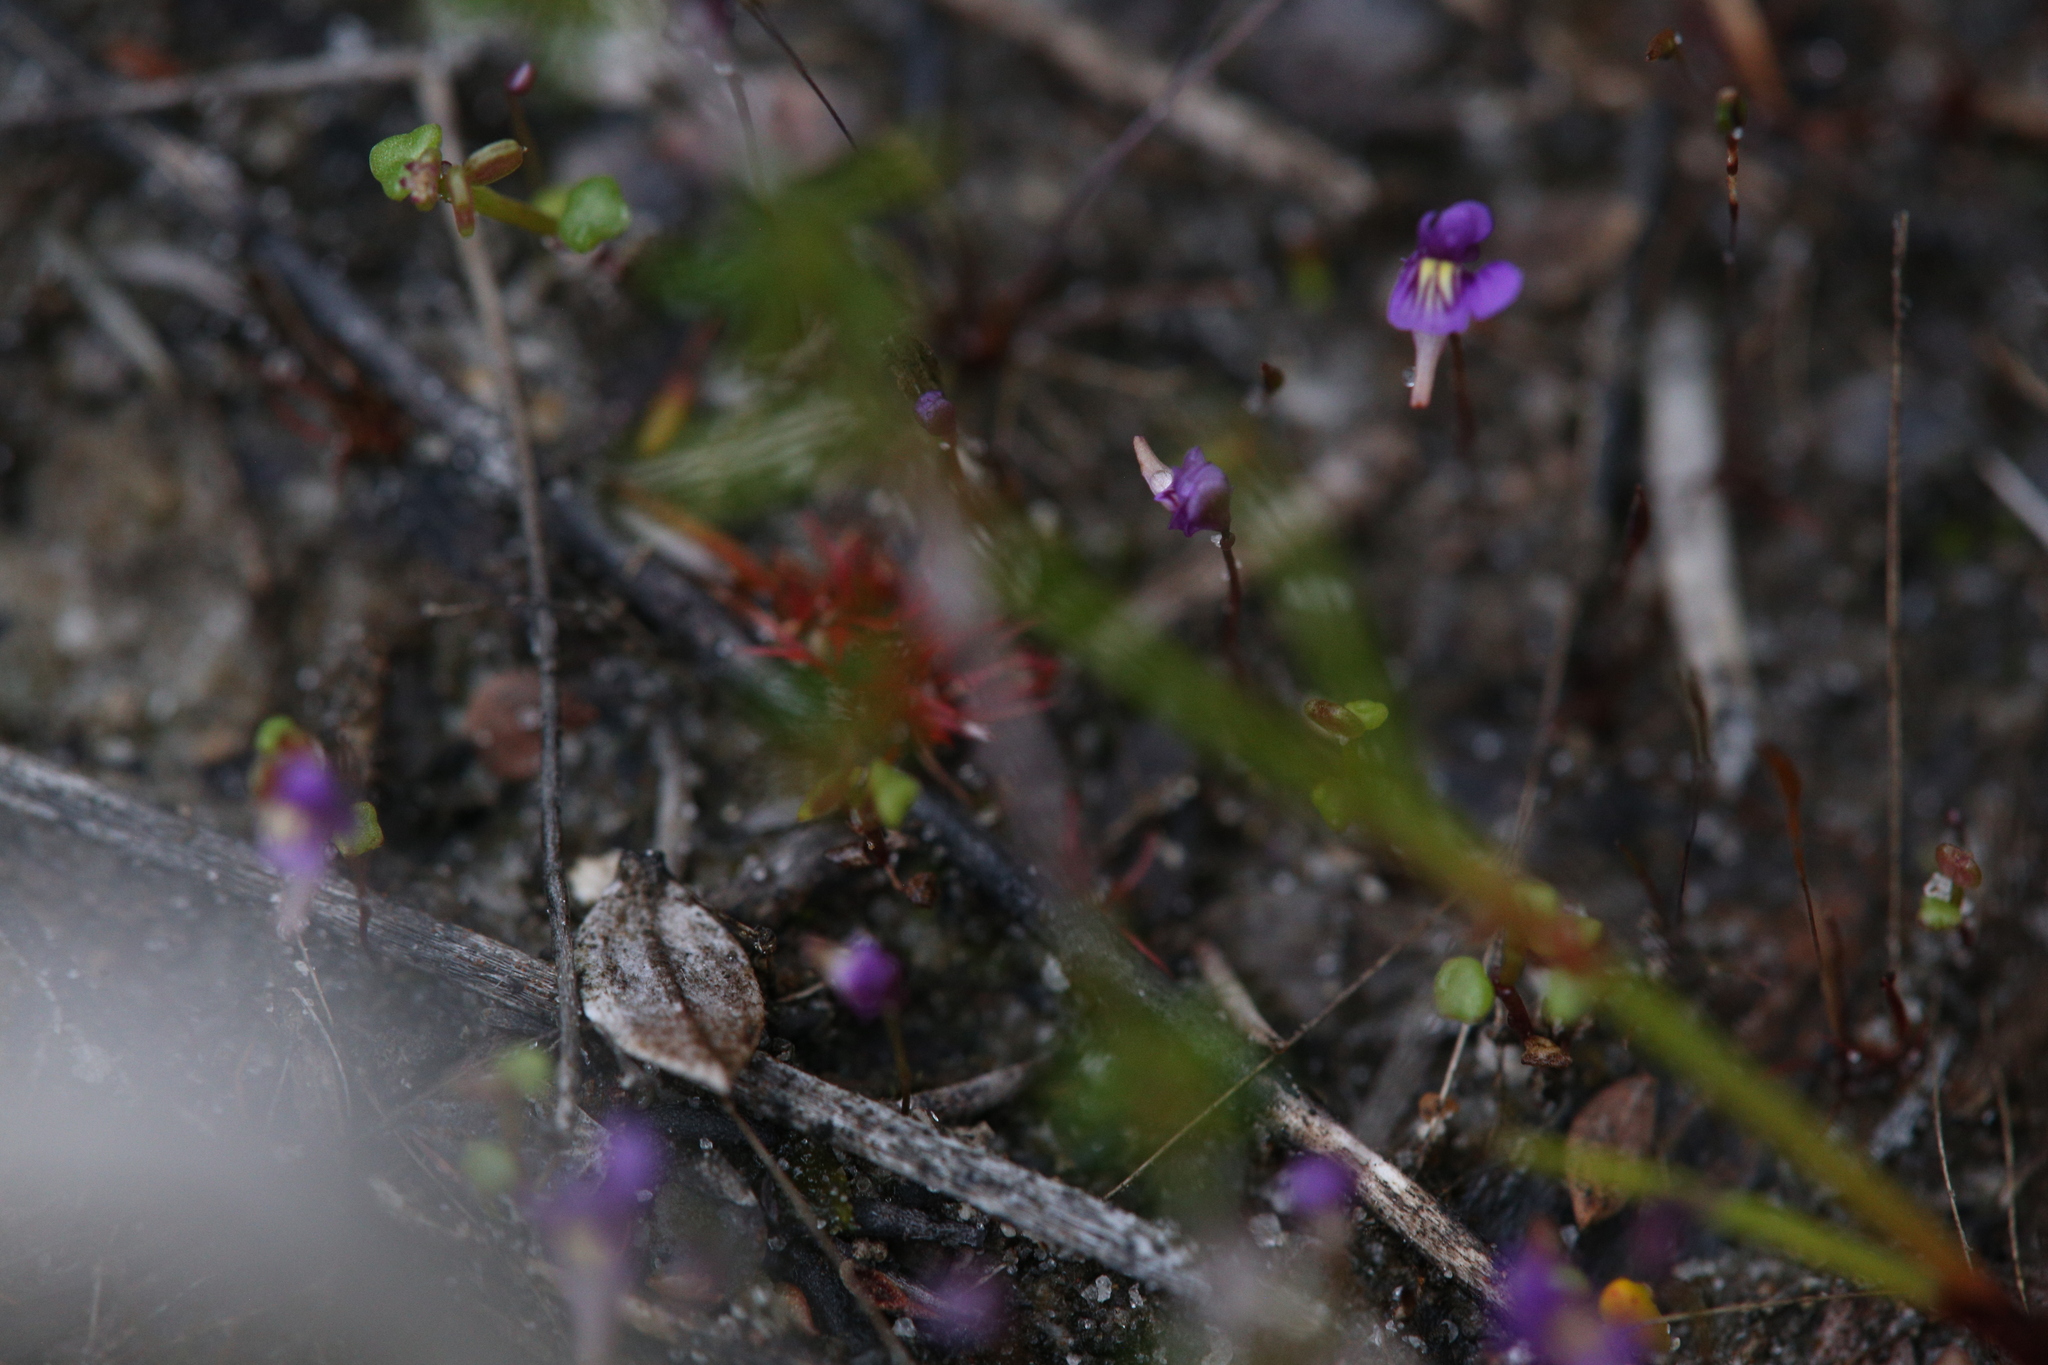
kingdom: Plantae
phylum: Tracheophyta
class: Magnoliopsida
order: Lamiales
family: Lentibulariaceae
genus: Utricularia
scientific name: Utricularia violacea
